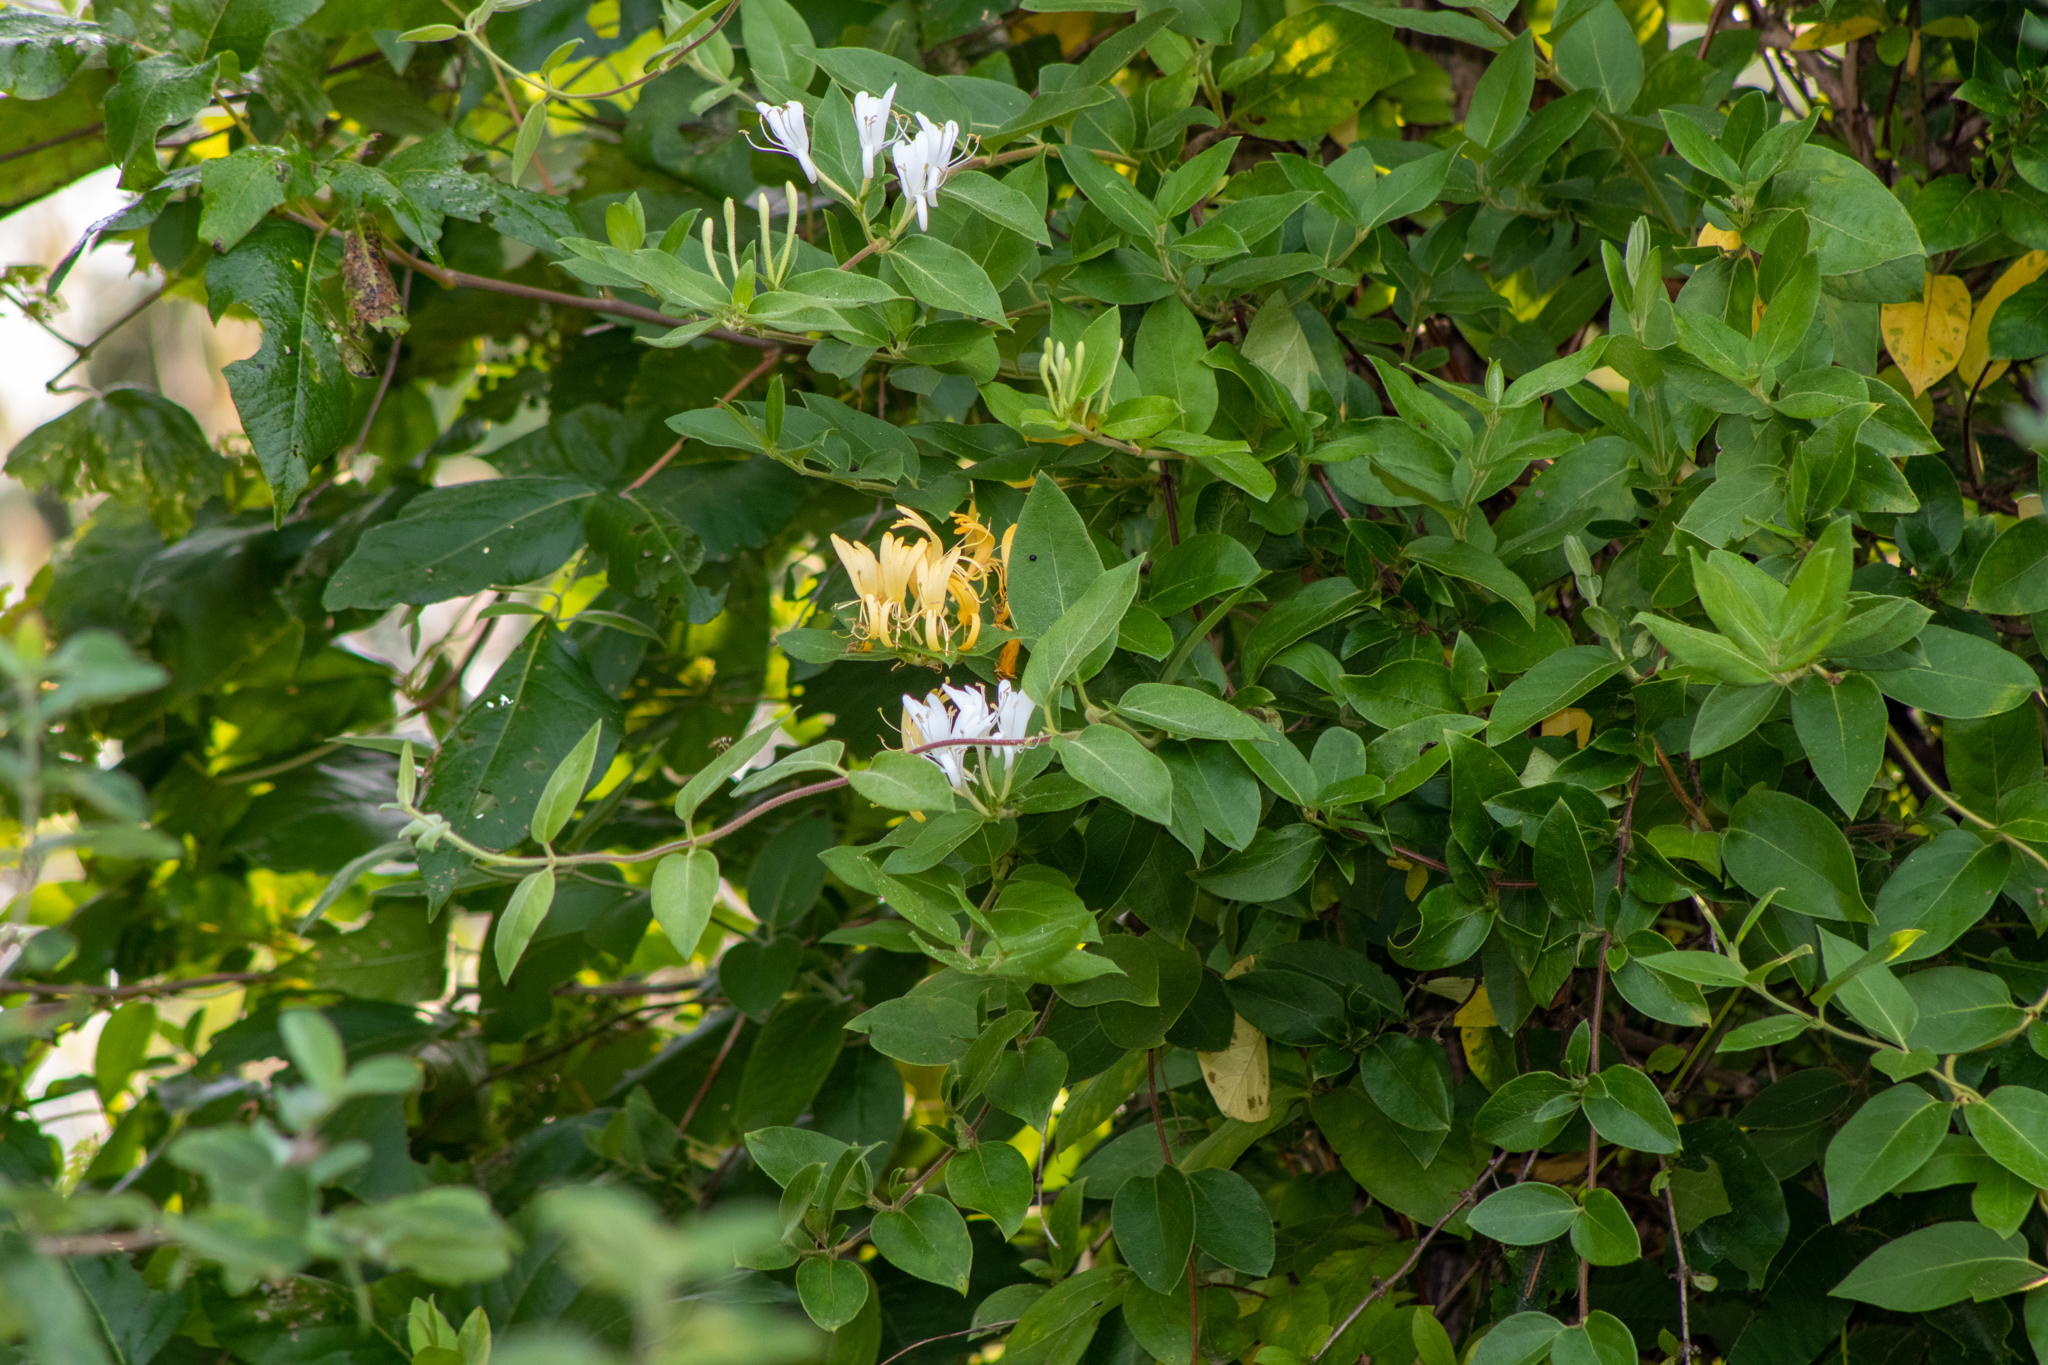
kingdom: Plantae
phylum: Tracheophyta
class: Magnoliopsida
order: Dipsacales
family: Caprifoliaceae
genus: Lonicera
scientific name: Lonicera japonica
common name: Japanese honeysuckle
